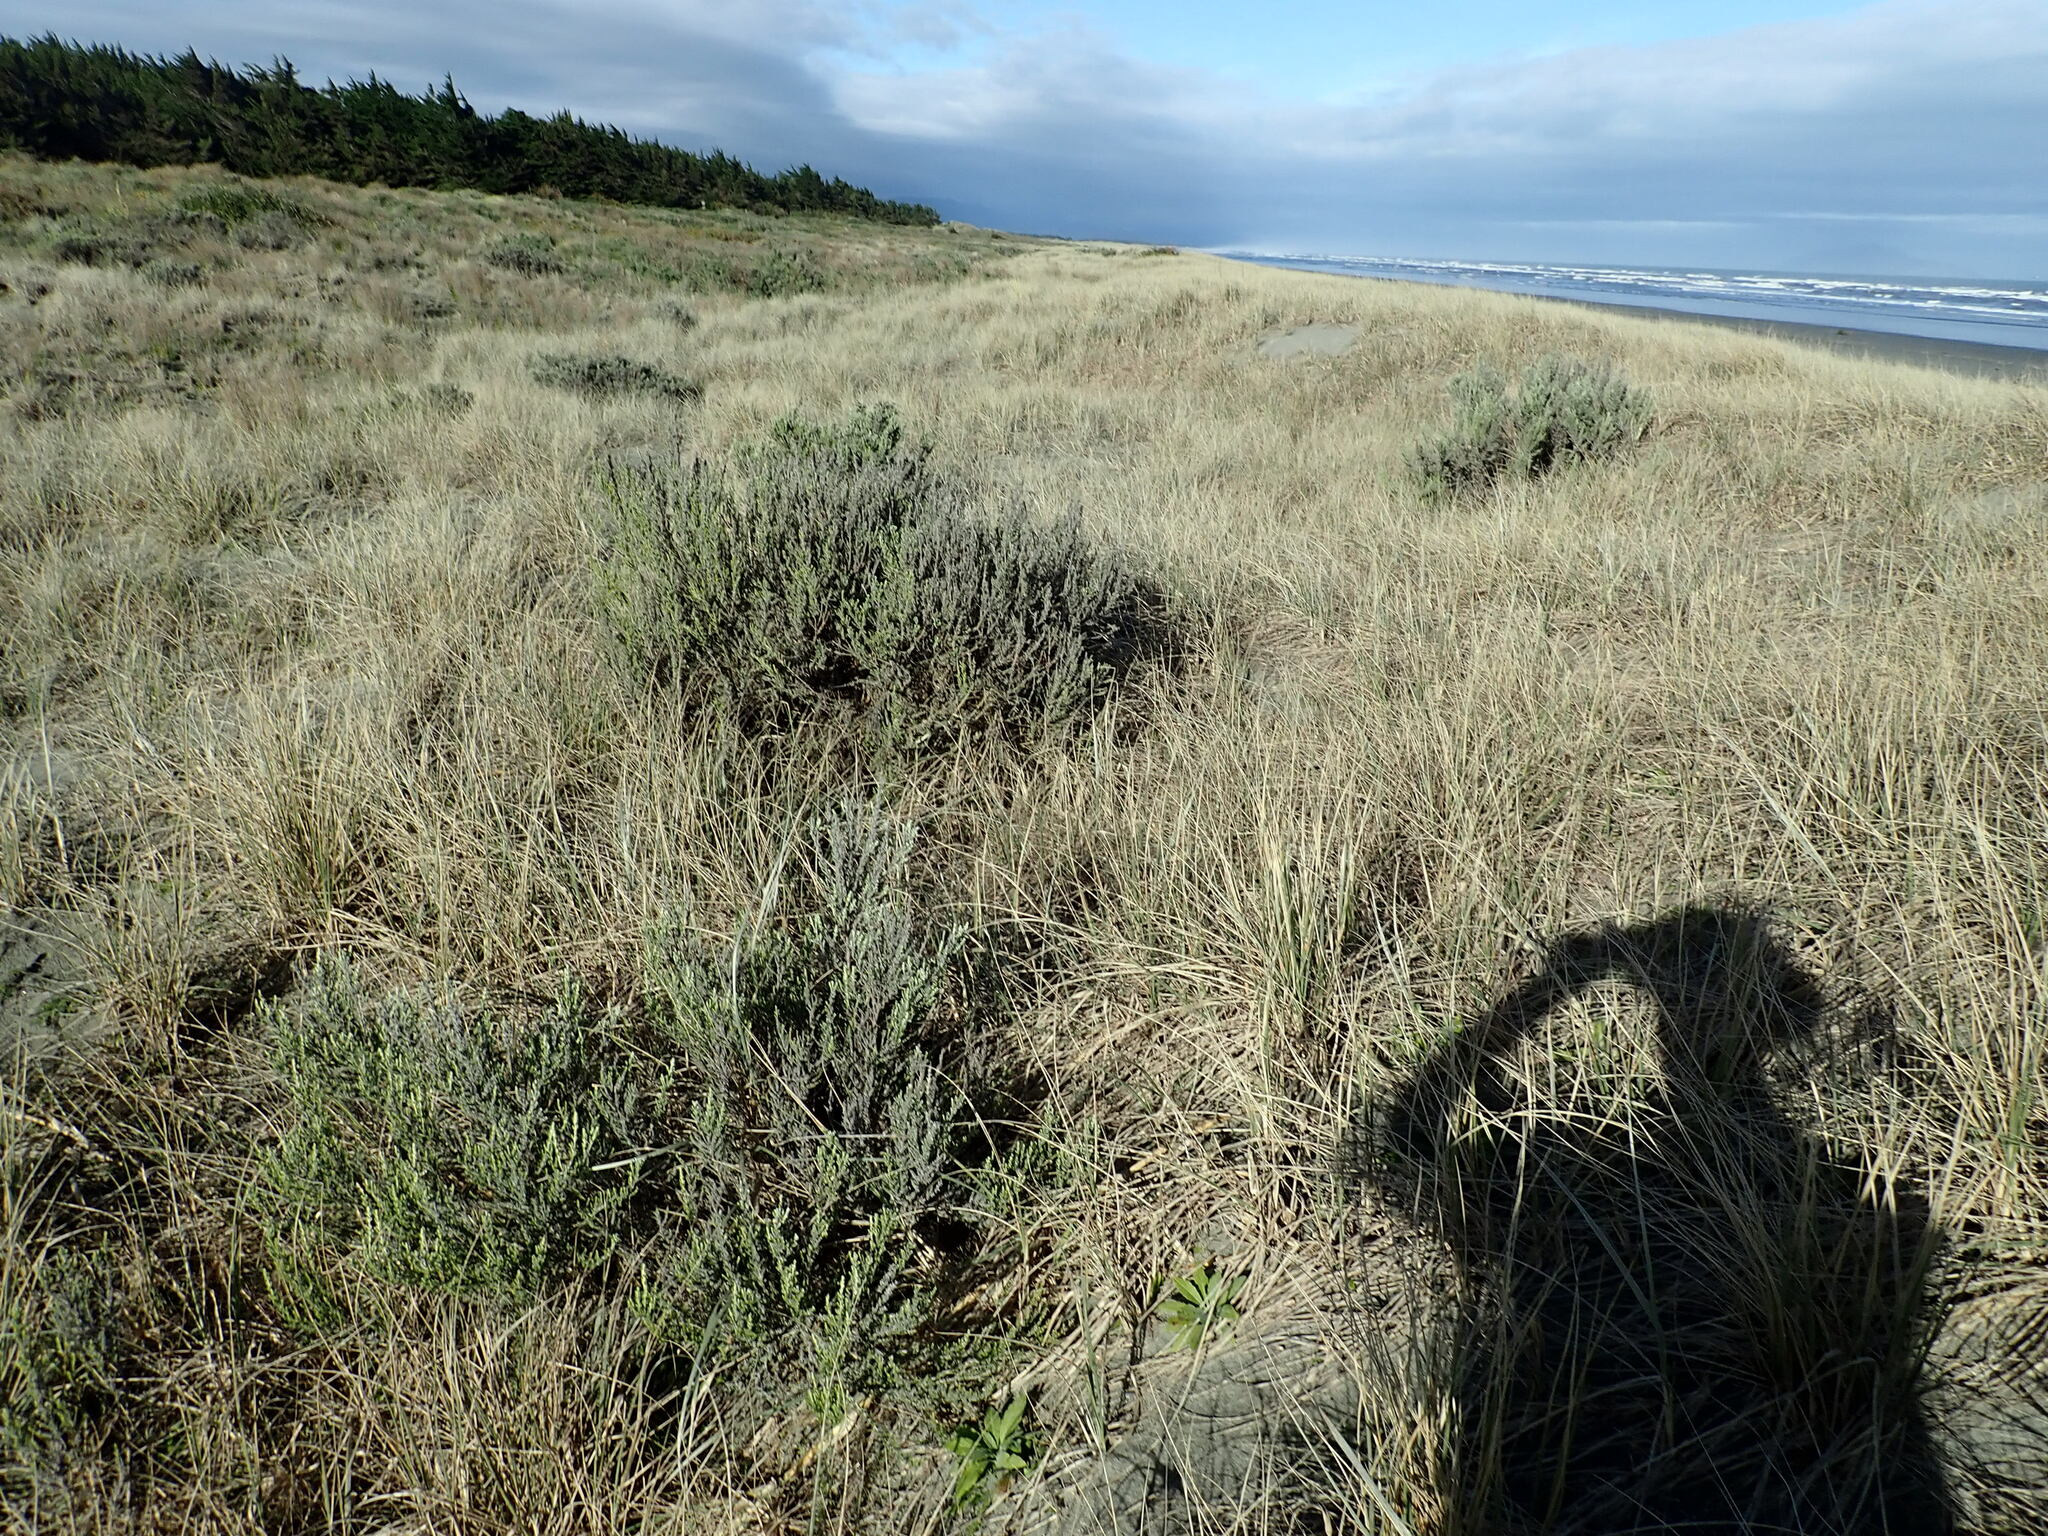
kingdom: Plantae
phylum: Tracheophyta
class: Magnoliopsida
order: Asterales
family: Asteraceae
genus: Ozothamnus
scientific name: Ozothamnus leptophyllus
